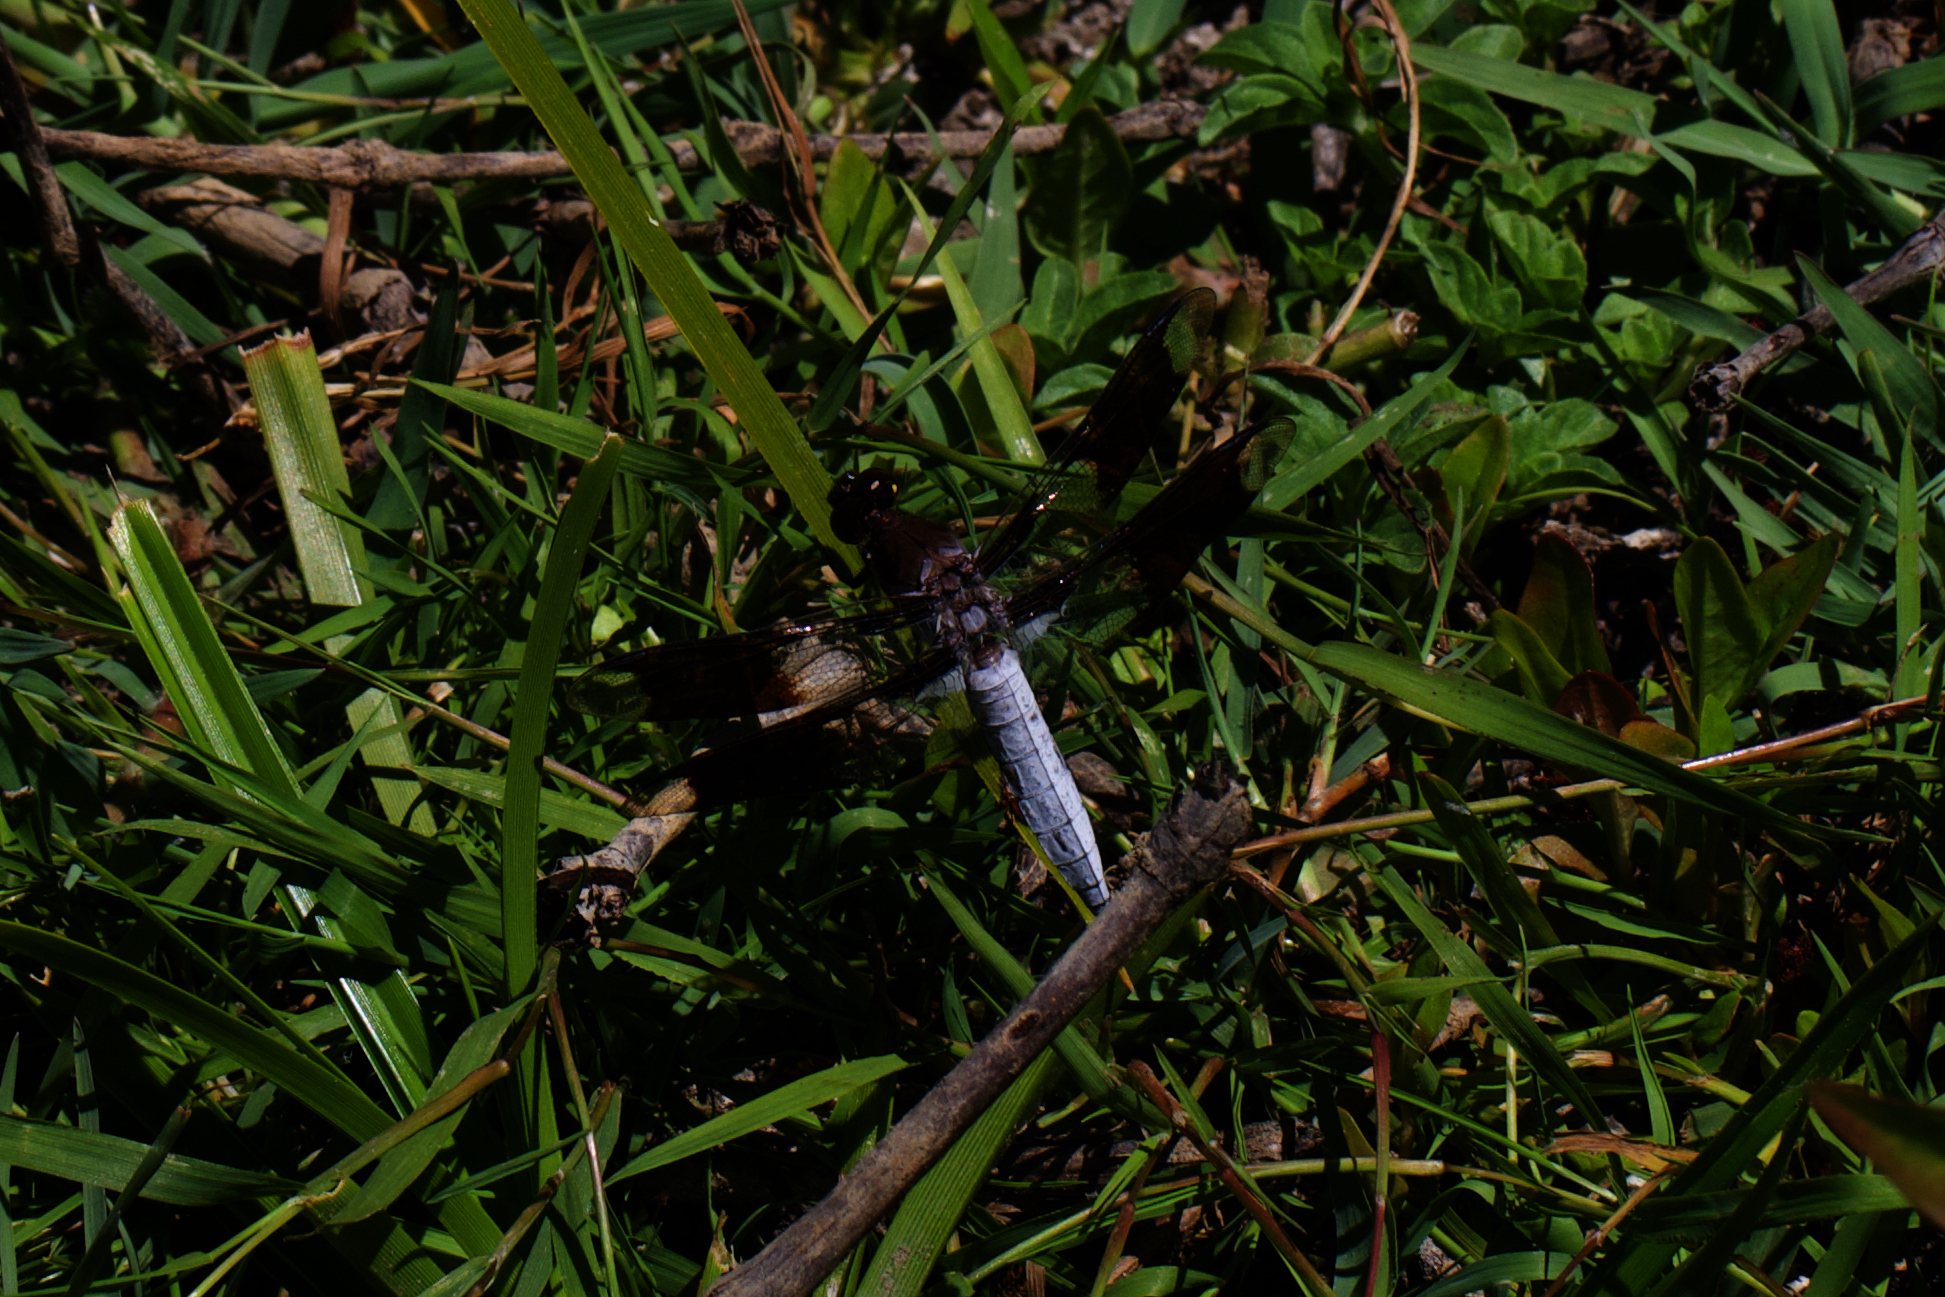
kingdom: Animalia
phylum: Arthropoda
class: Insecta
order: Odonata
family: Libellulidae
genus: Plathemis
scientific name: Plathemis lydia
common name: Common whitetail
